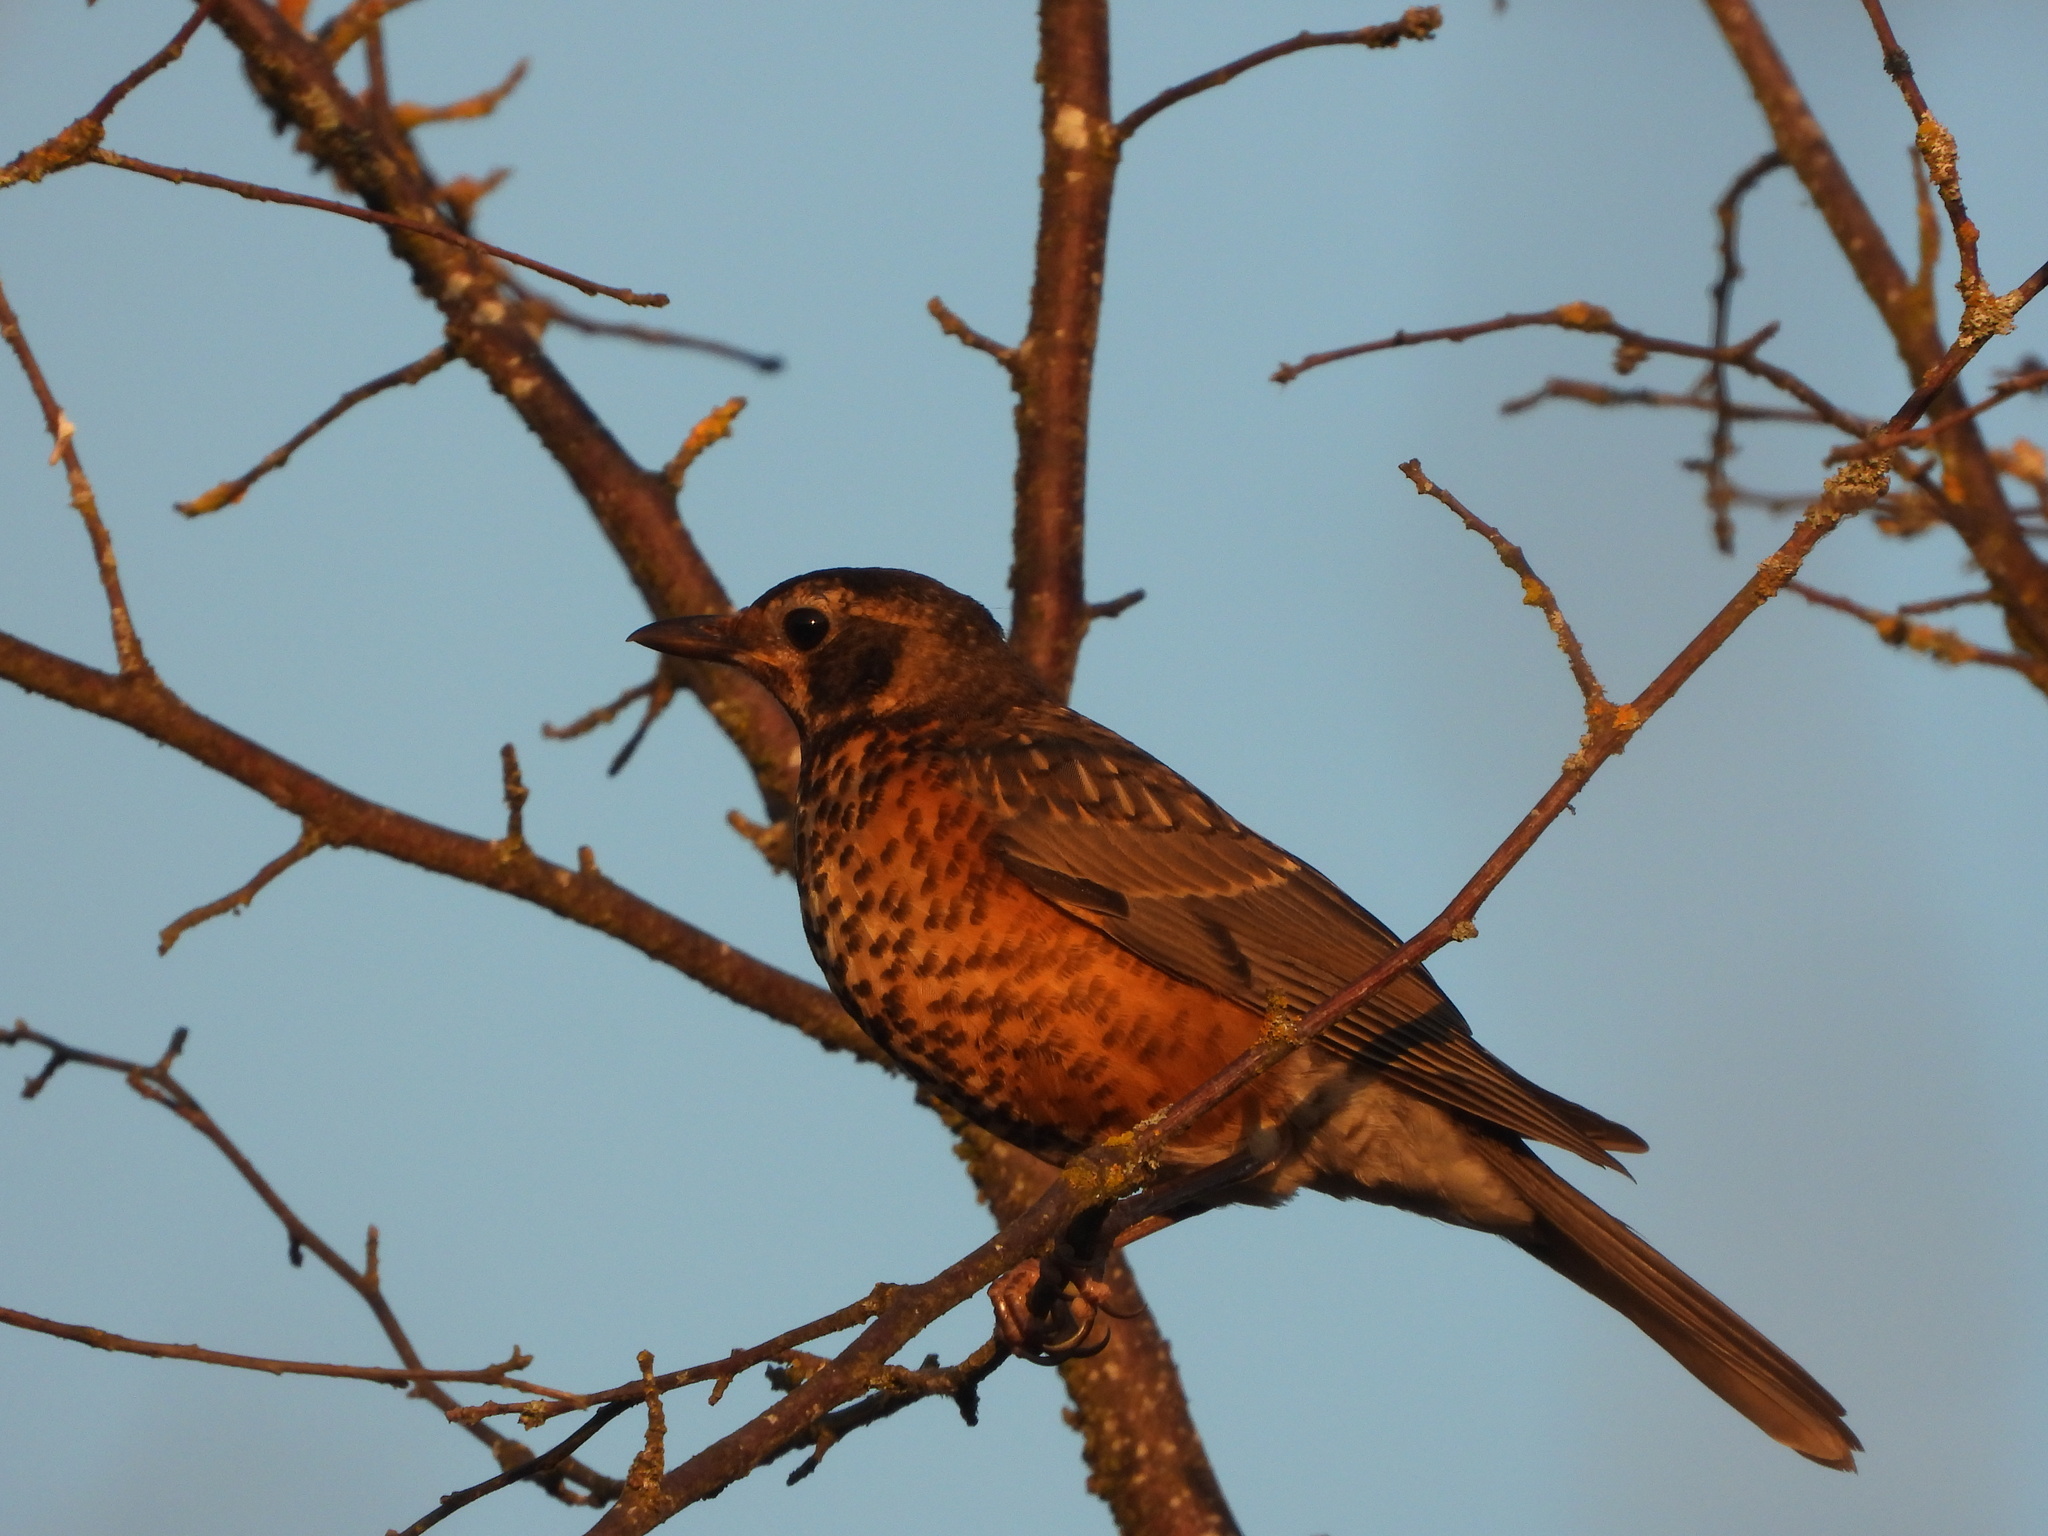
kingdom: Animalia
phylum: Chordata
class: Aves
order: Passeriformes
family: Turdidae
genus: Turdus
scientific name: Turdus migratorius
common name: American robin
